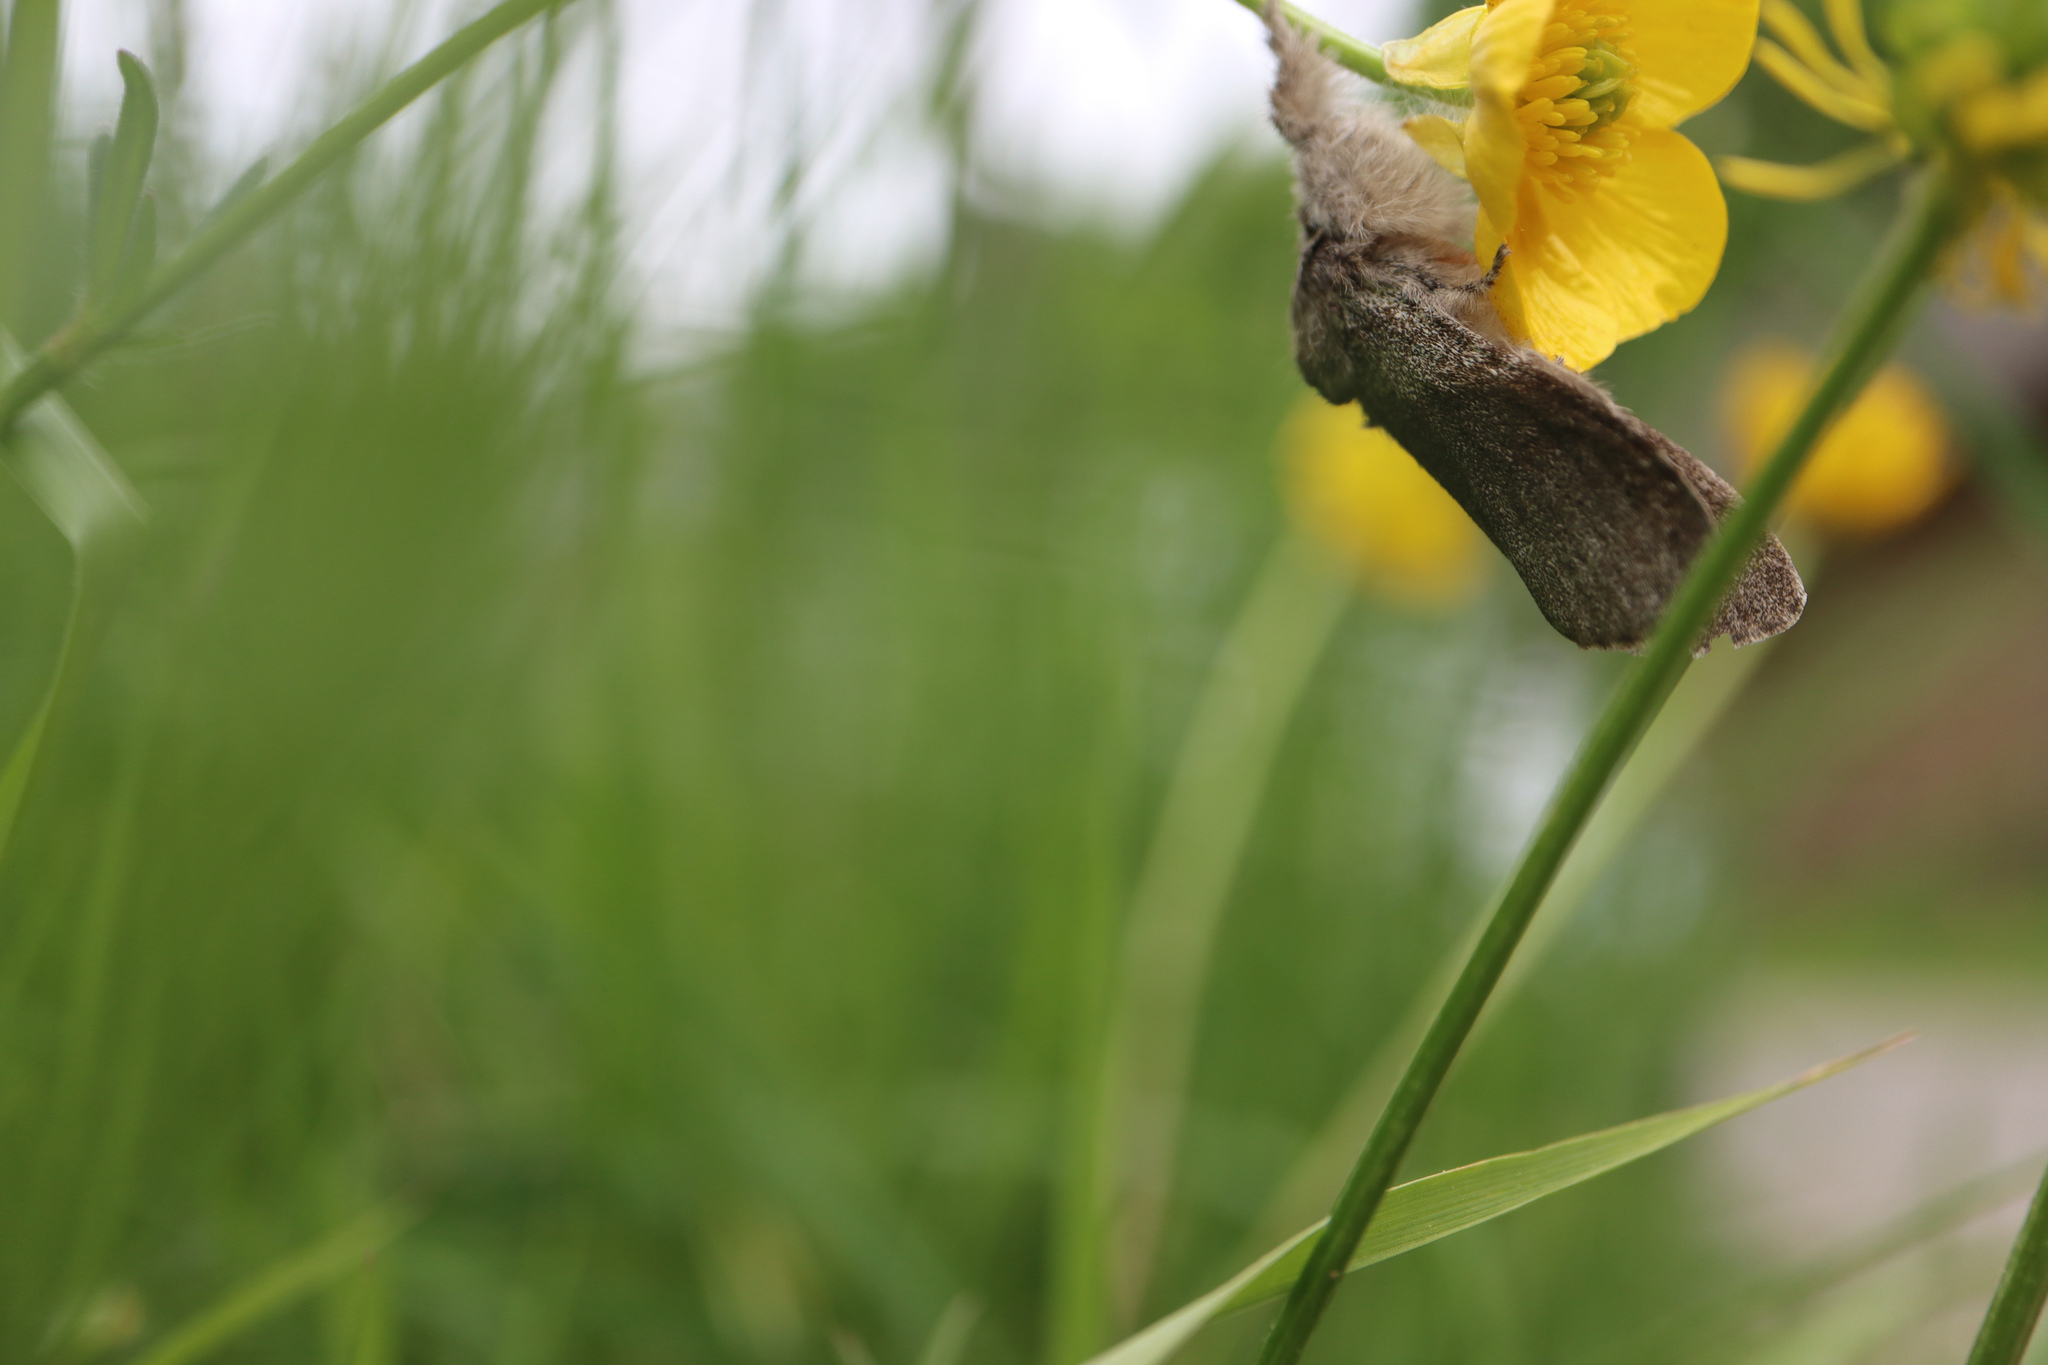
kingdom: Animalia
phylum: Arthropoda
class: Insecta
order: Lepidoptera
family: Erebidae
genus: Calliteara
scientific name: Calliteara pudibunda
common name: Pale tussock
